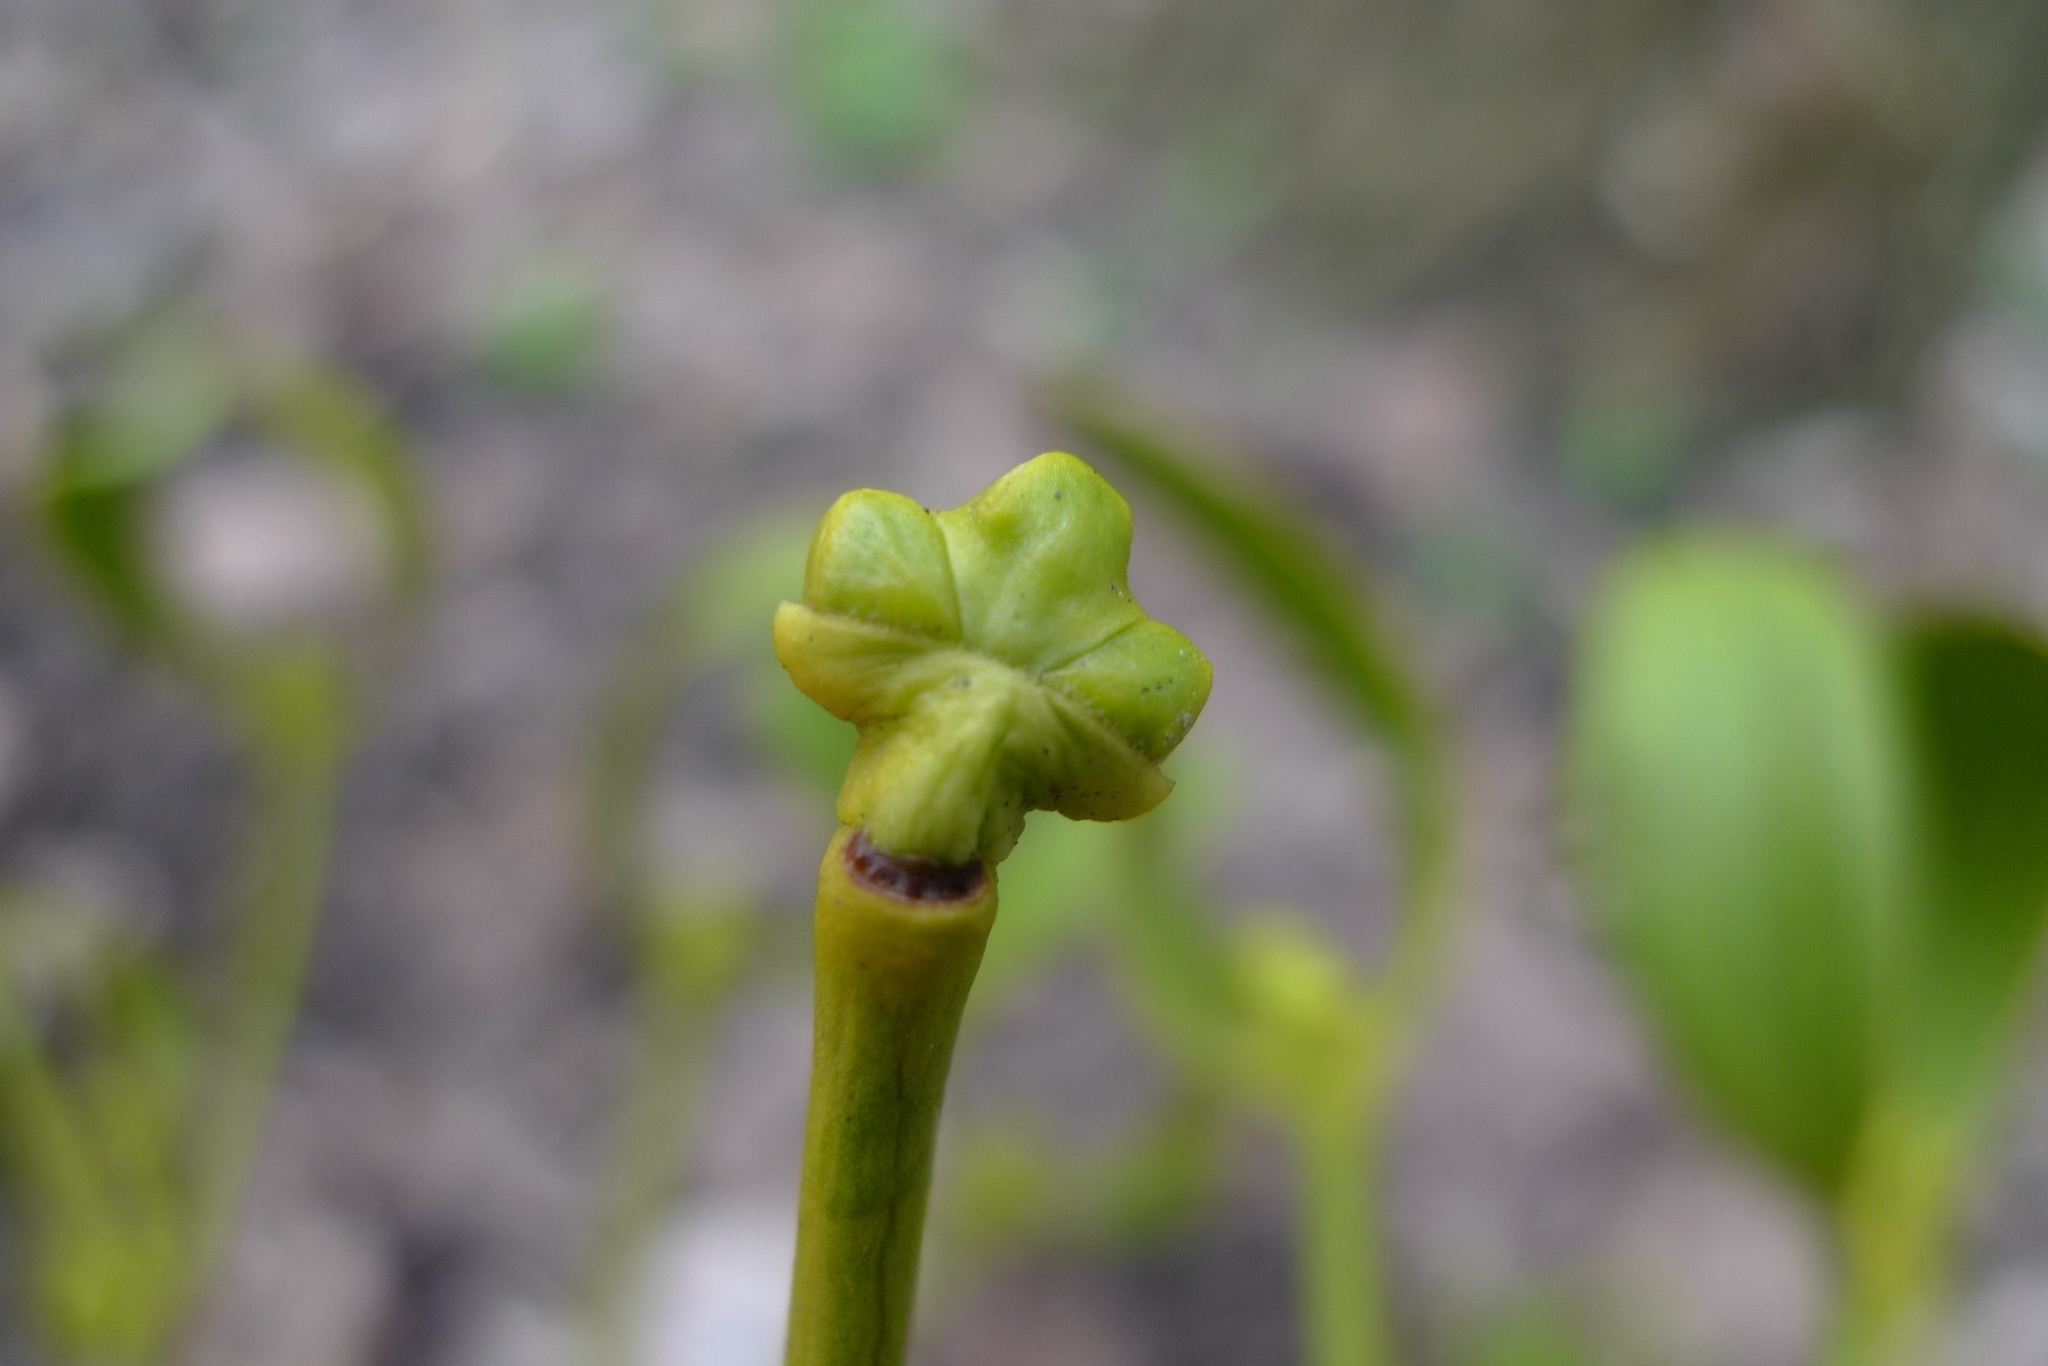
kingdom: Plantae
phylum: Tracheophyta
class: Magnoliopsida
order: Santalales
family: Viscaceae
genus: Viscum
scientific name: Viscum album
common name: Mistletoe
